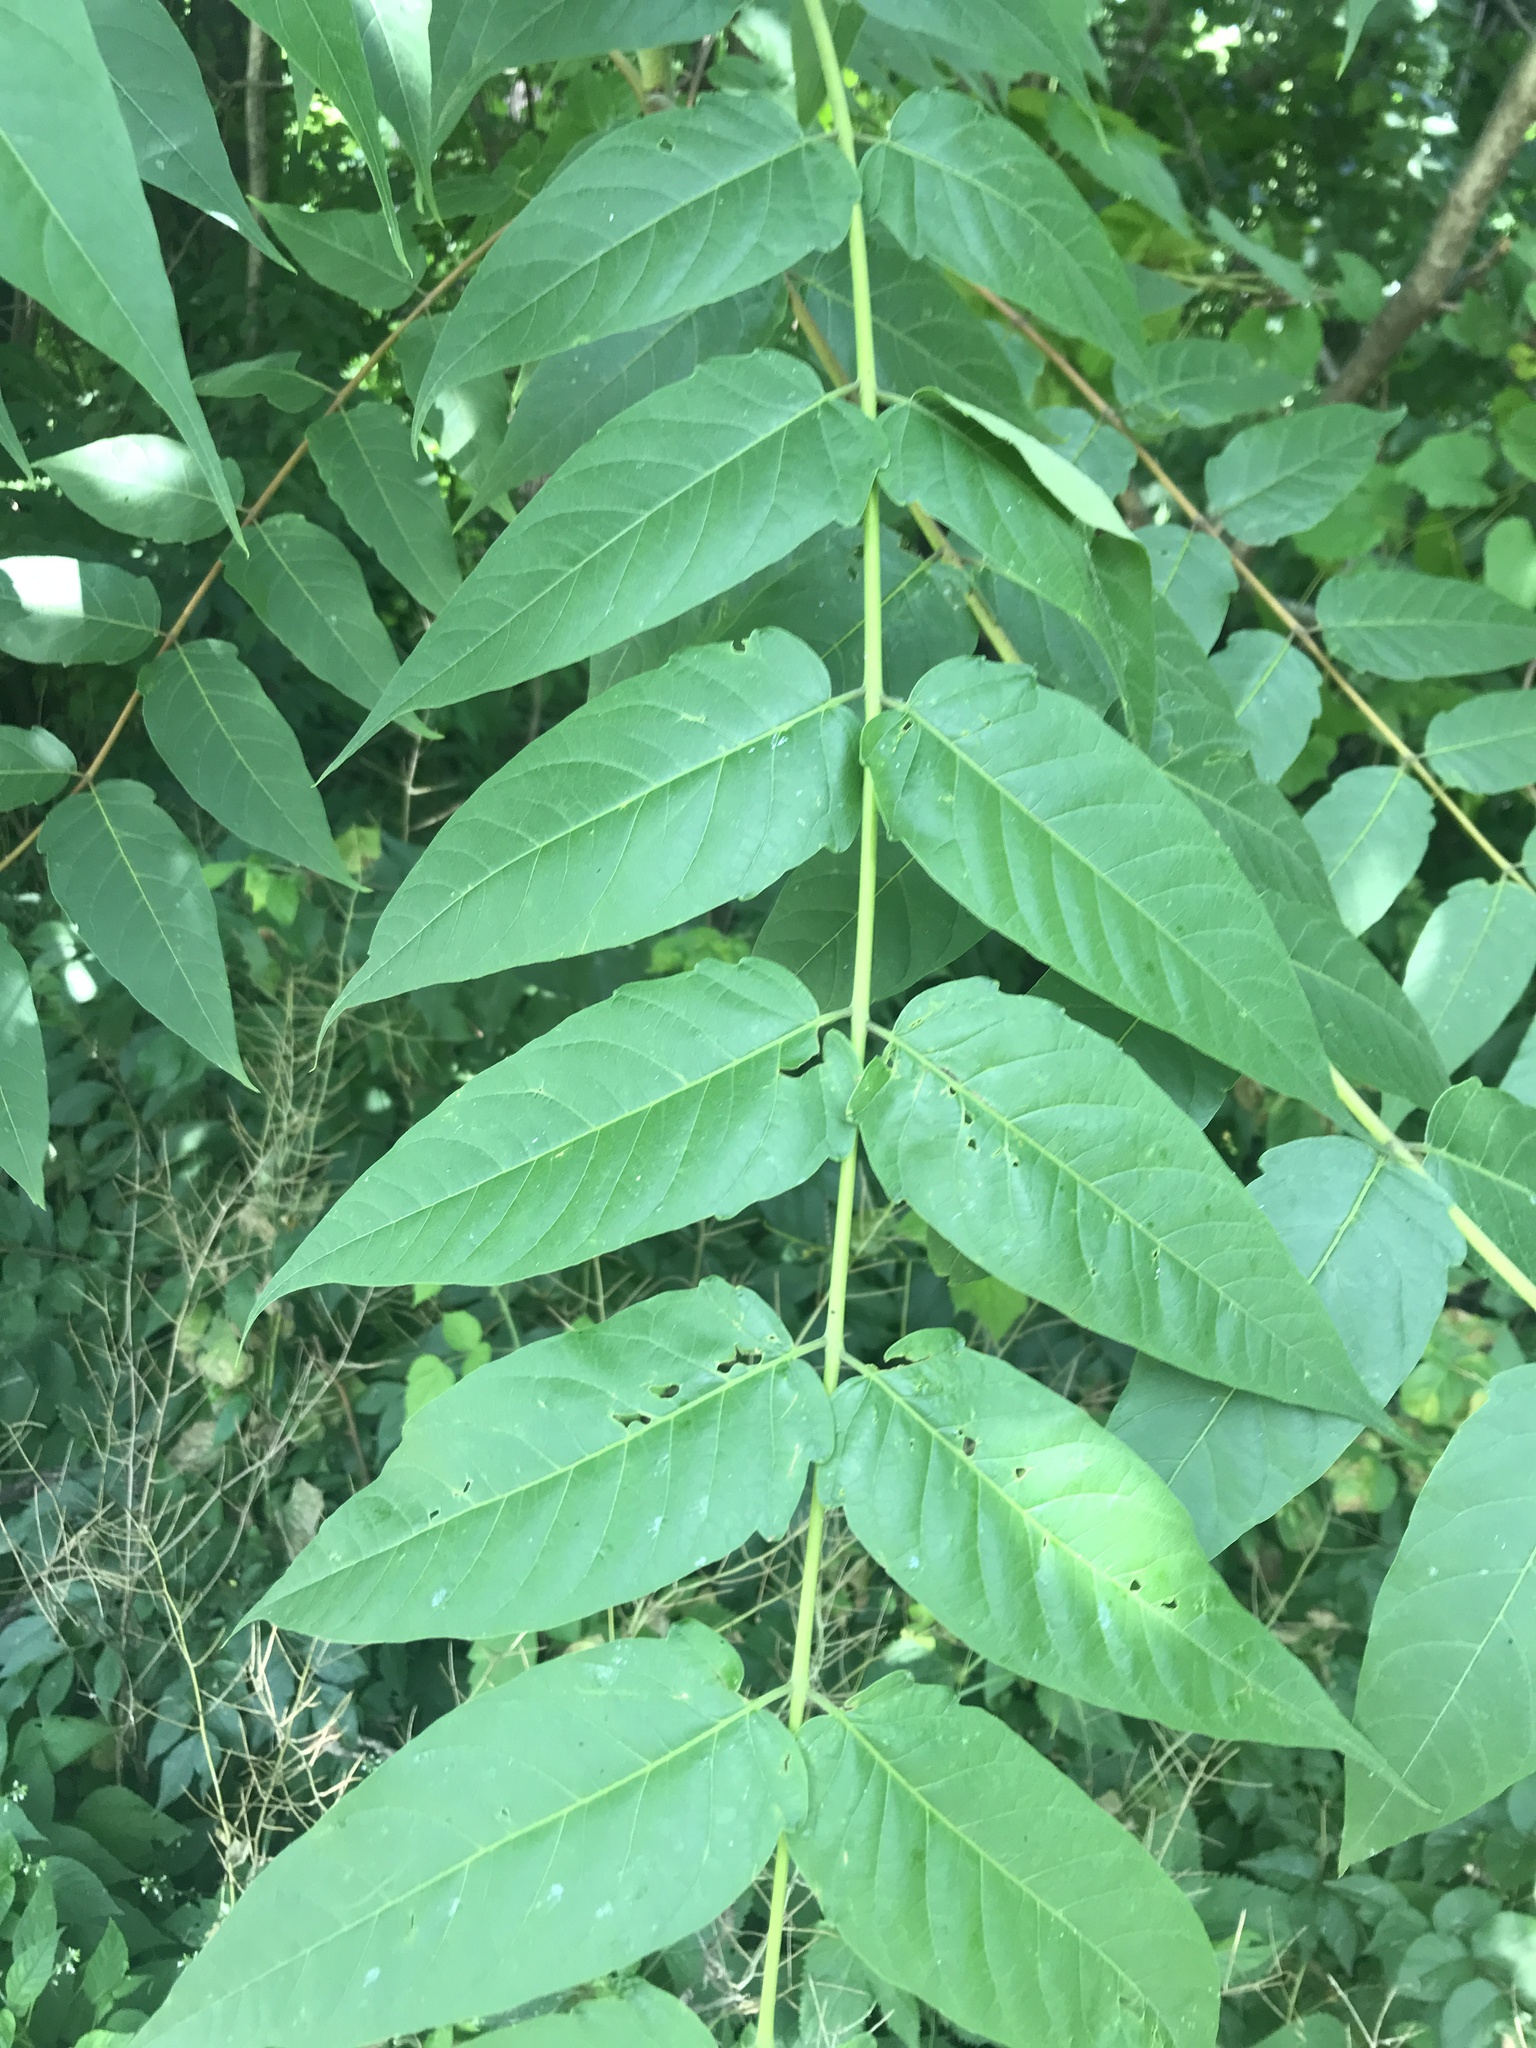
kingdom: Plantae
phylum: Tracheophyta
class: Magnoliopsida
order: Sapindales
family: Simaroubaceae
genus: Ailanthus
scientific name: Ailanthus altissima
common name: Tree-of-heaven
